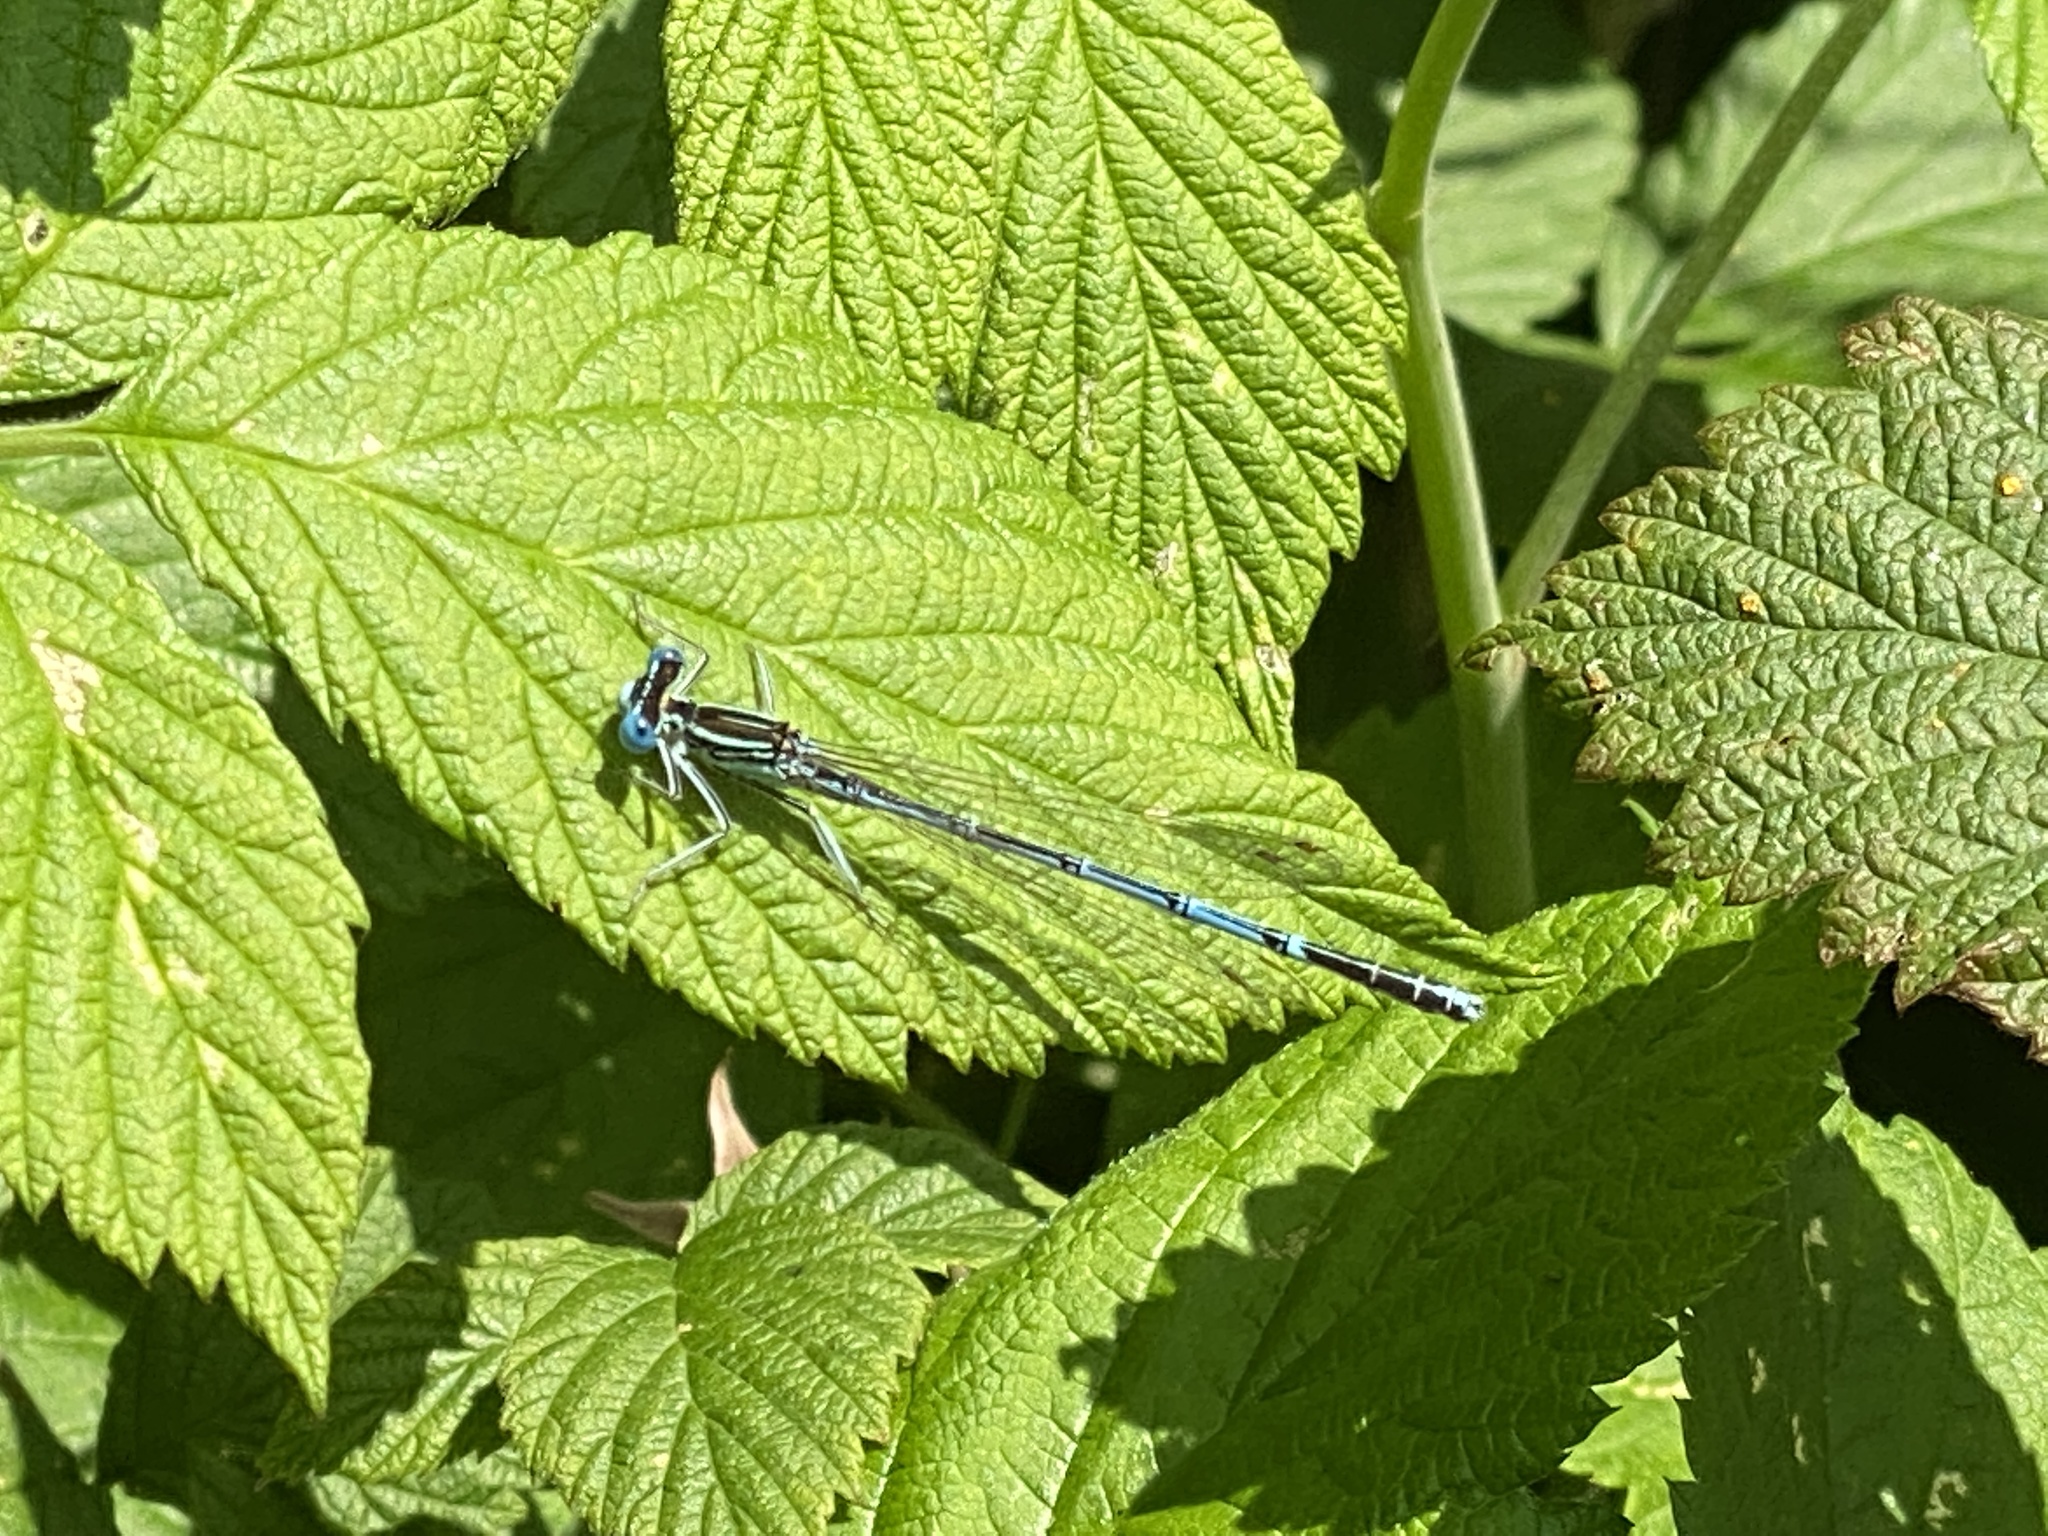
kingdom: Animalia
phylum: Arthropoda
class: Insecta
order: Odonata
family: Platycnemididae
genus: Platycnemis
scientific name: Platycnemis pennipes
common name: White-legged damselfly
